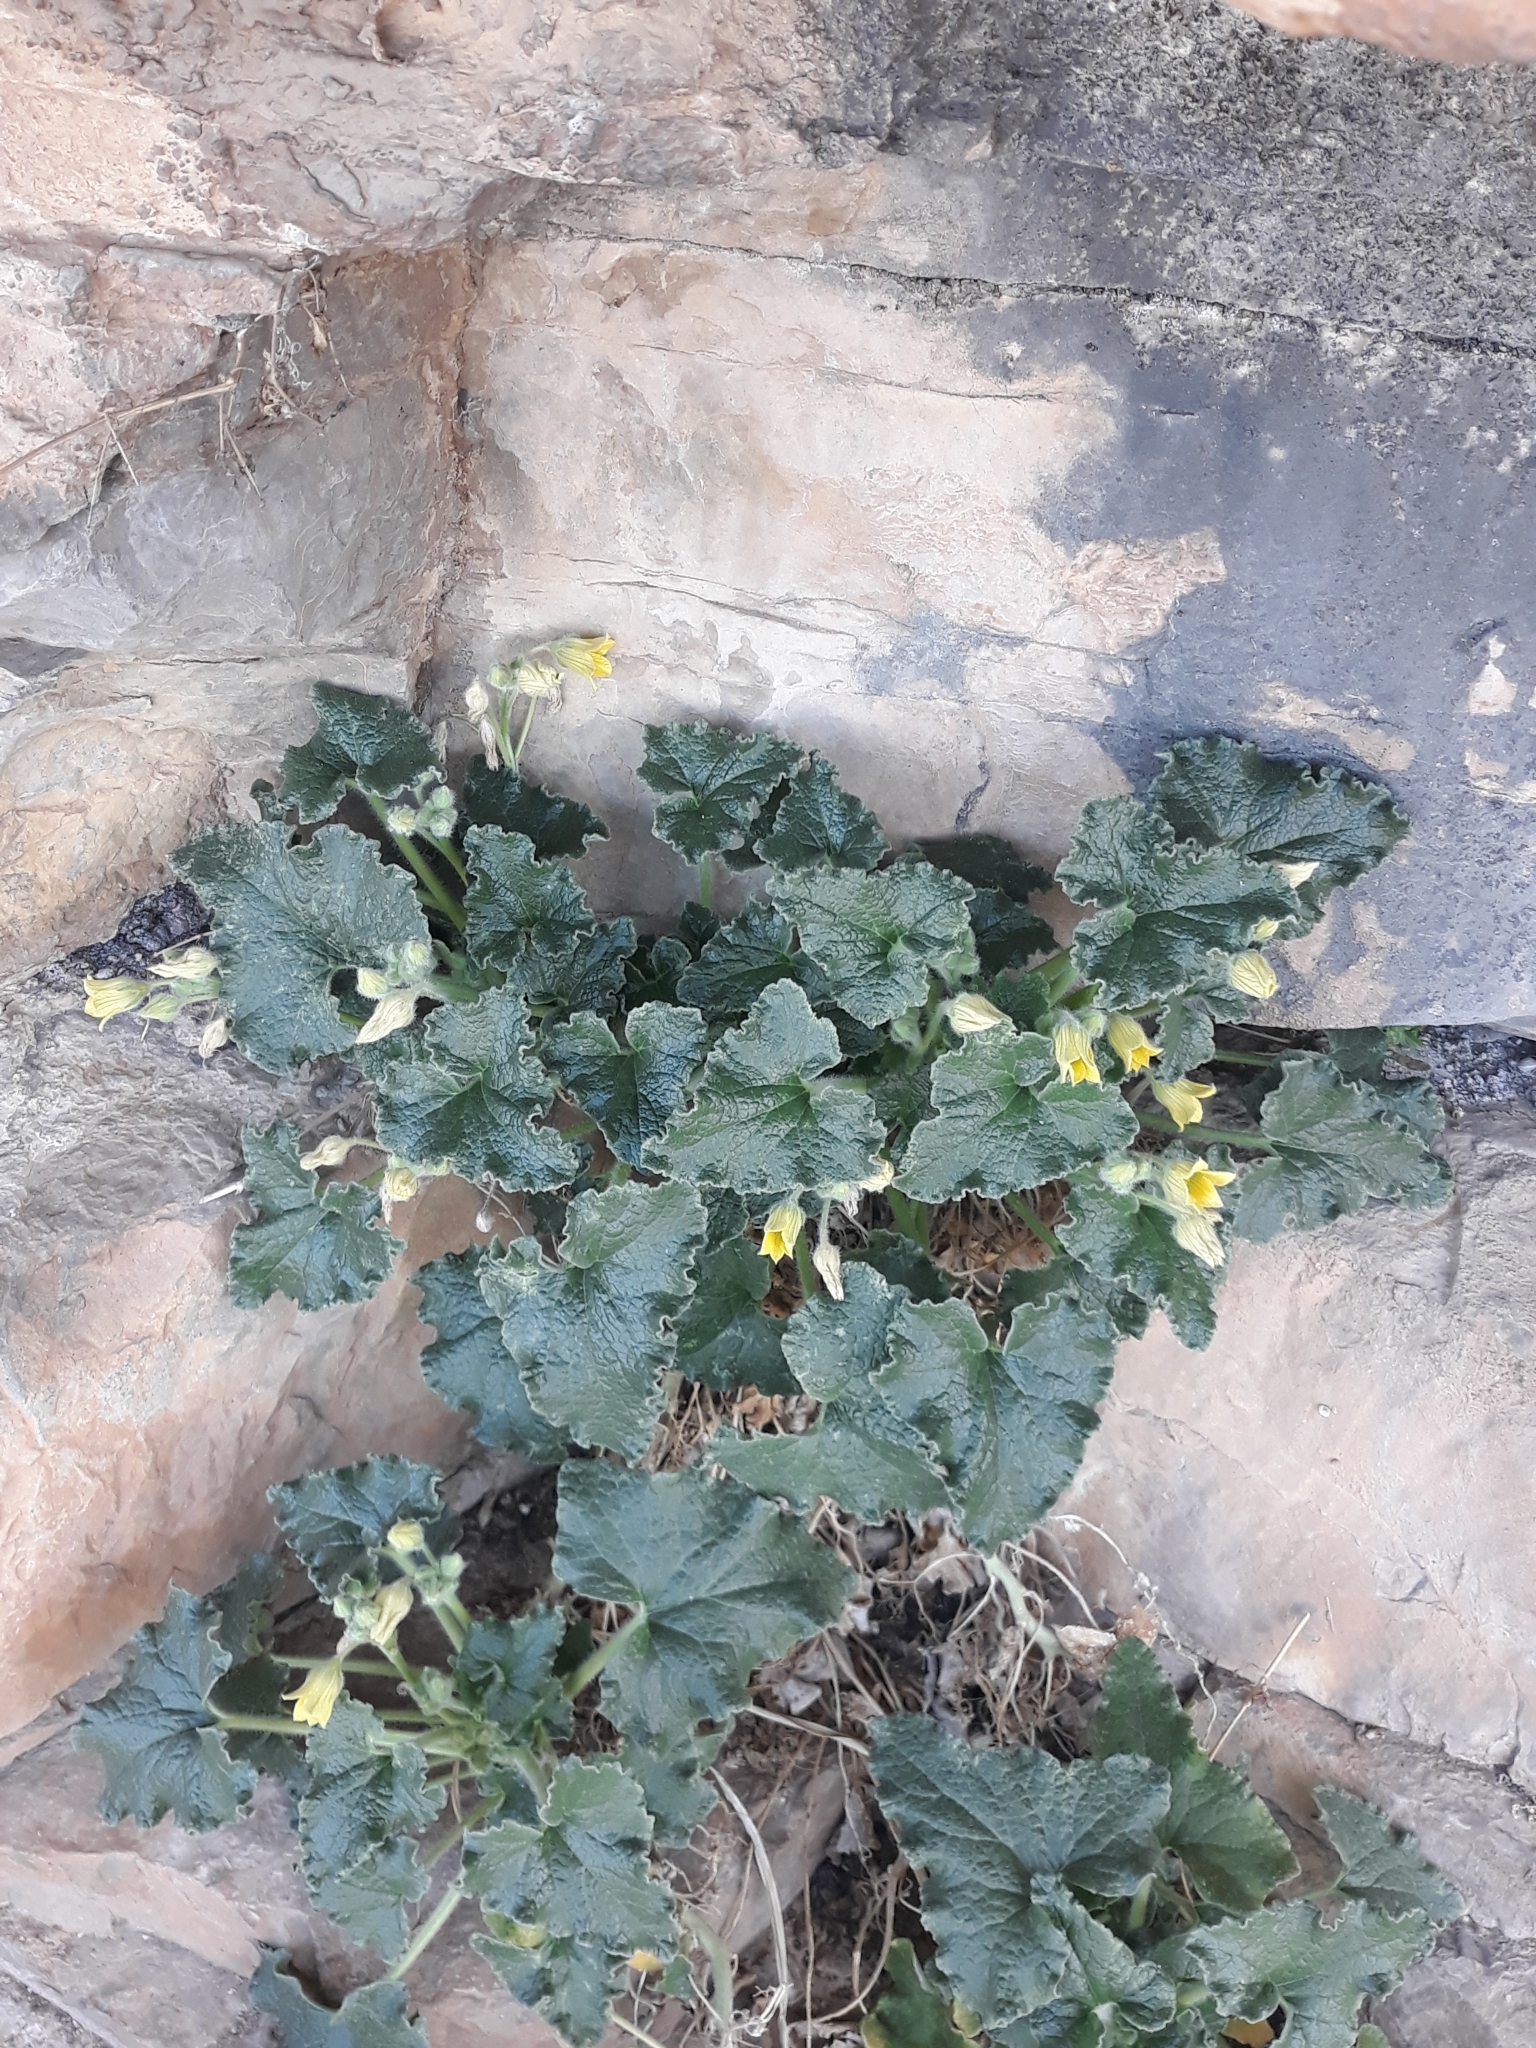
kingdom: Plantae
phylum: Tracheophyta
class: Magnoliopsida
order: Cucurbitales
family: Cucurbitaceae
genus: Ecballium
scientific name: Ecballium elaterium
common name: Squirting cucumber
